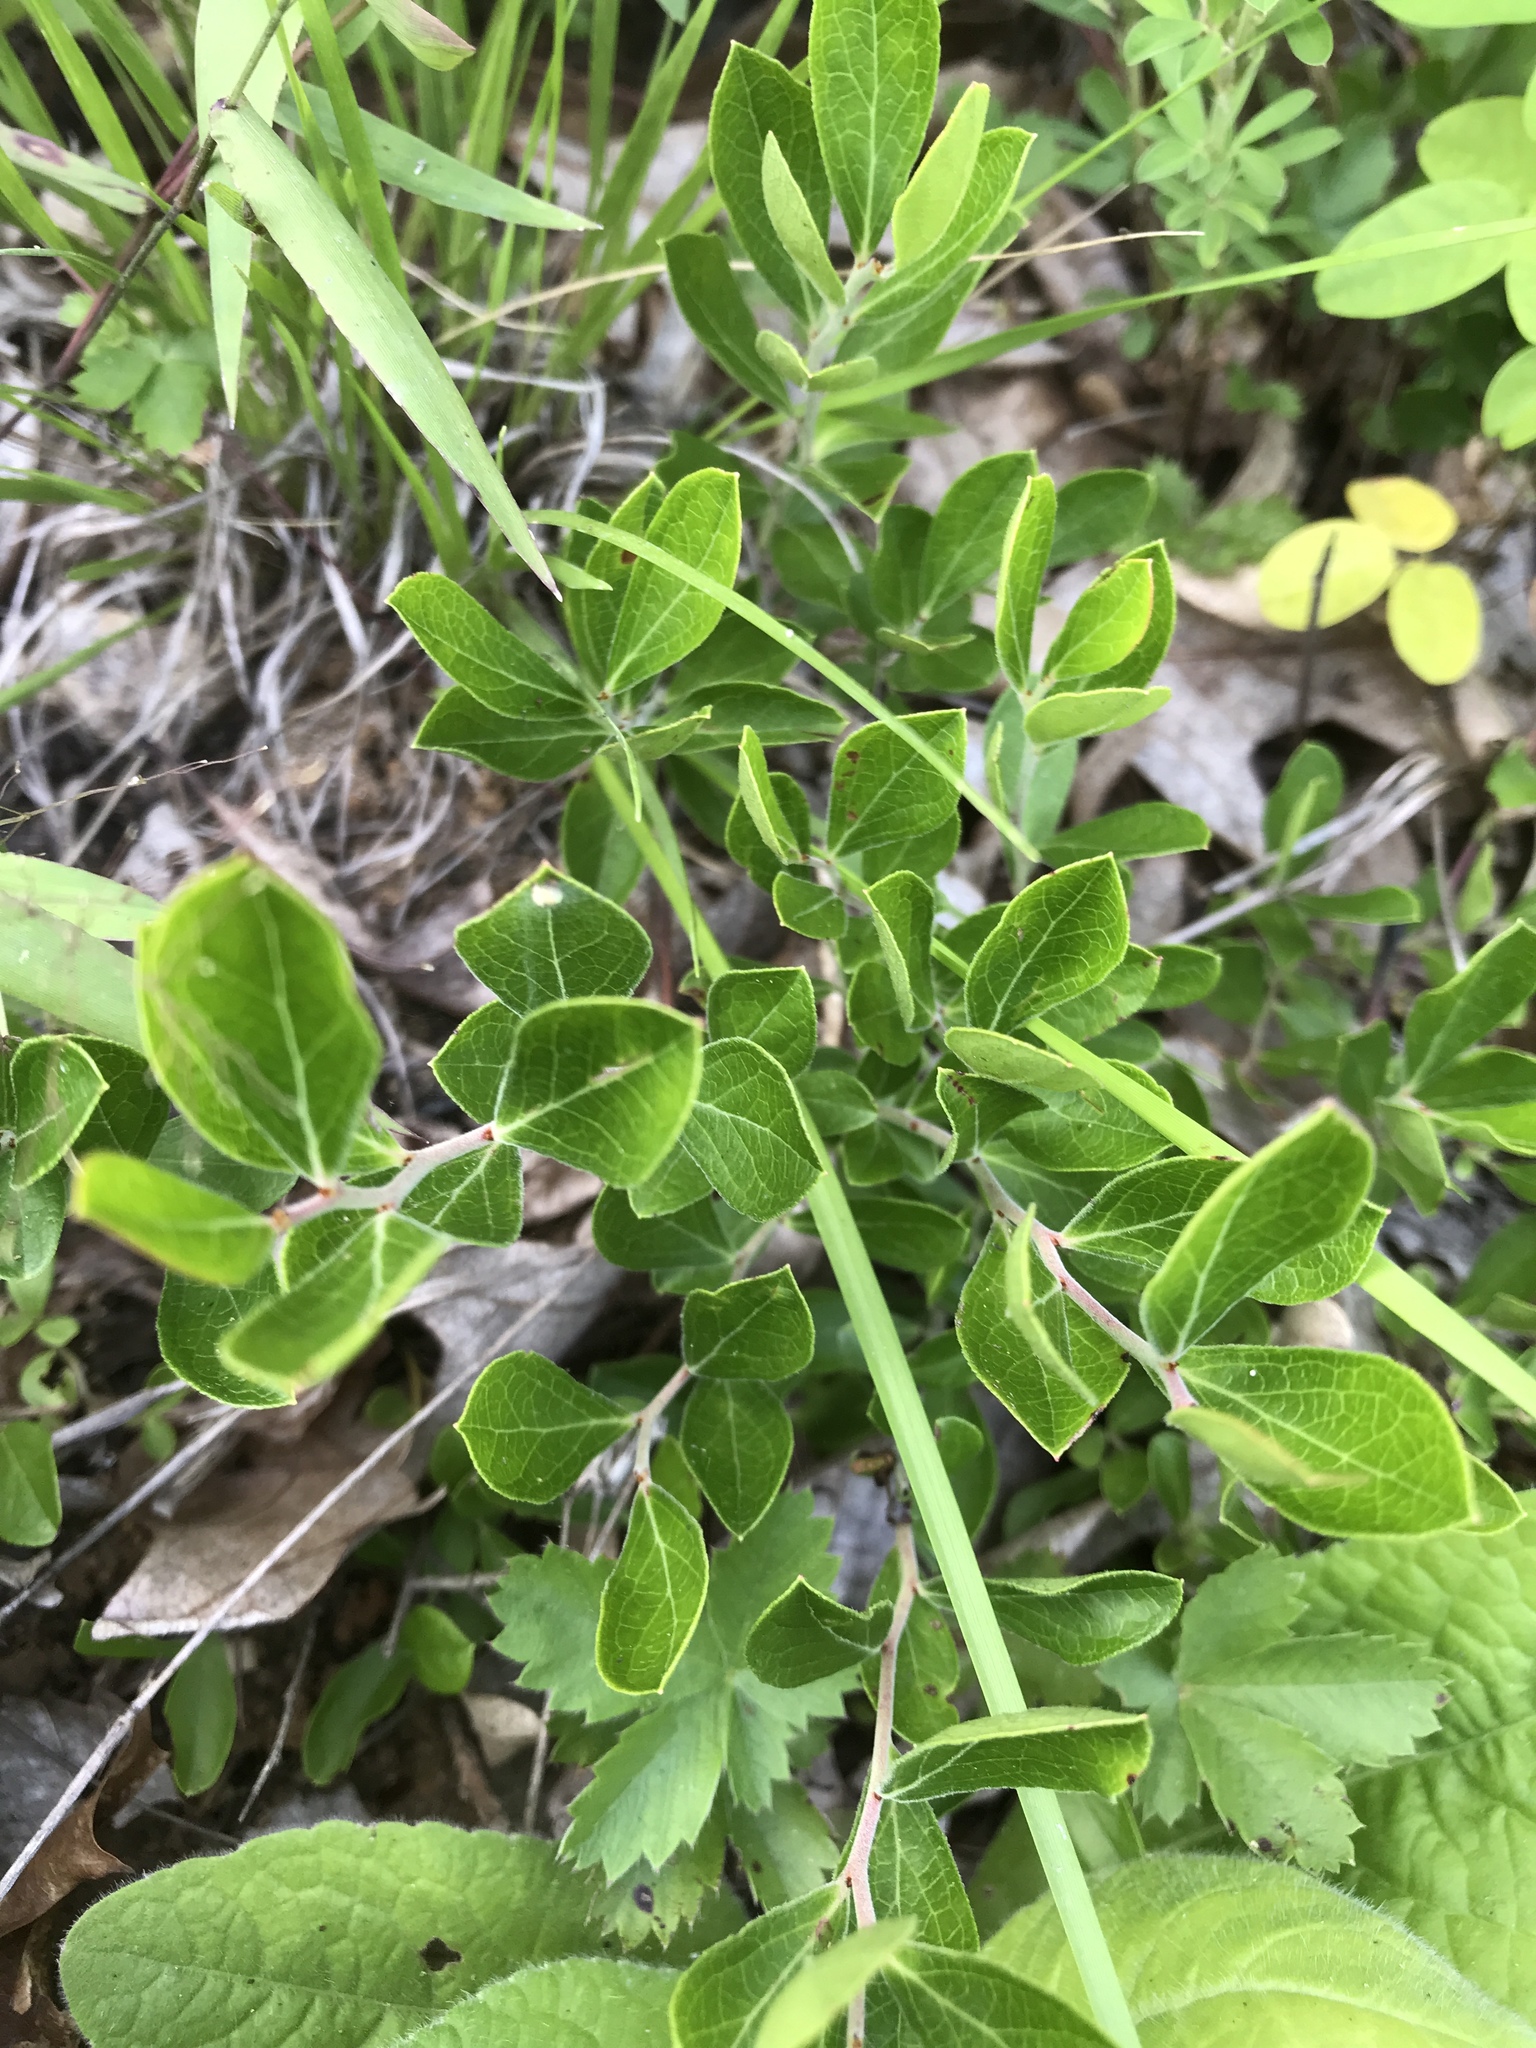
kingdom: Plantae
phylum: Tracheophyta
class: Magnoliopsida
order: Ericales
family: Ericaceae
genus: Vaccinium
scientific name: Vaccinium tenellum
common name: Southern blueberry
